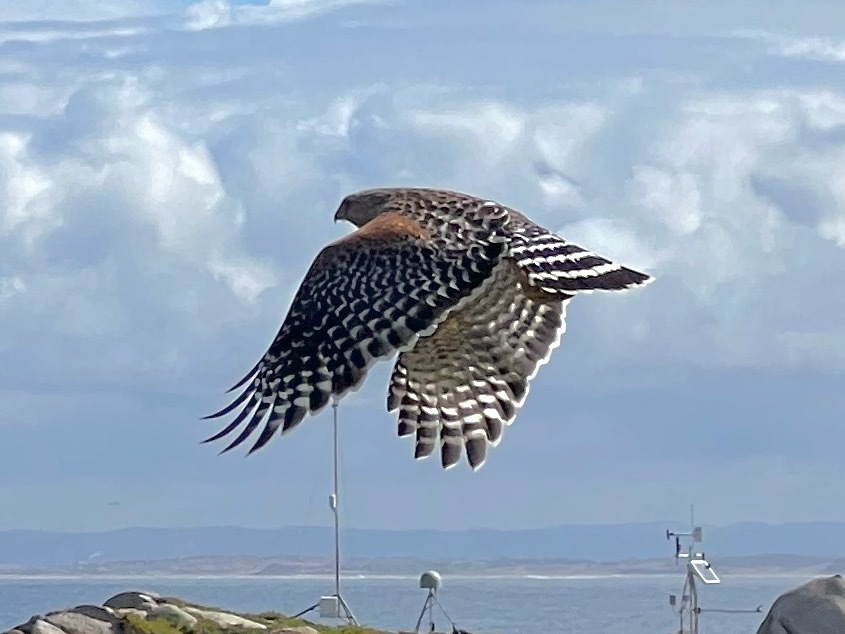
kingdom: Animalia
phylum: Chordata
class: Aves
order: Accipitriformes
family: Accipitridae
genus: Buteo
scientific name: Buteo lineatus
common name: Red-shouldered hawk
